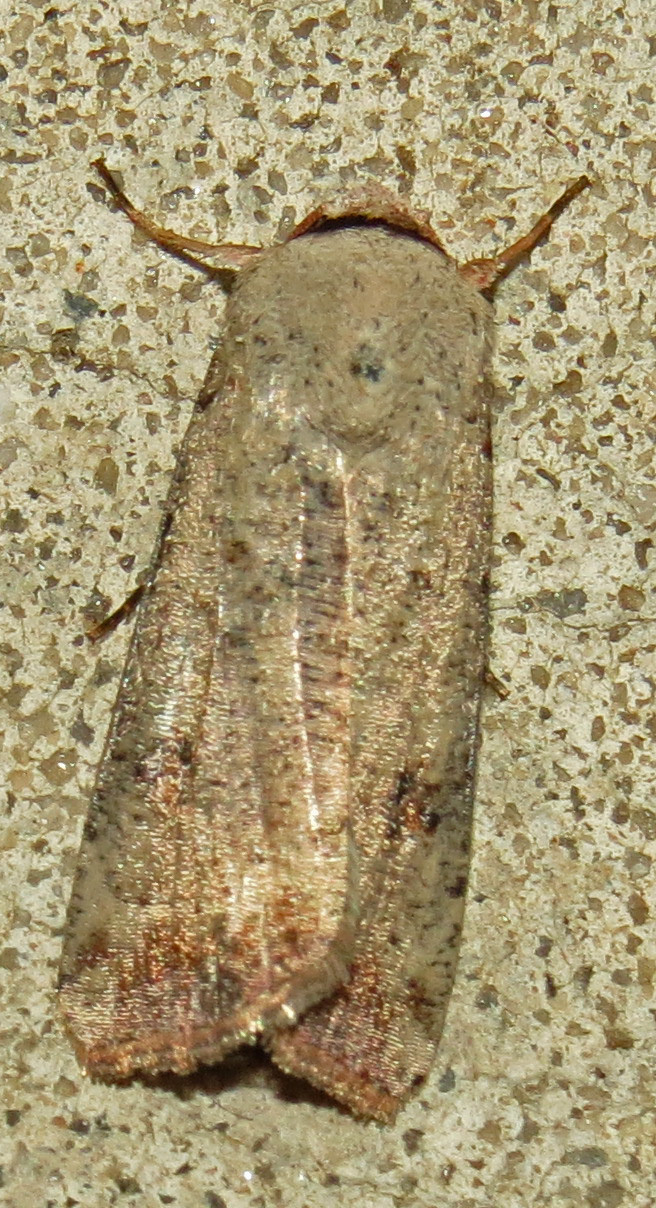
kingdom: Animalia
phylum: Arthropoda
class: Insecta
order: Lepidoptera
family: Noctuidae
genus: Anicla
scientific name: Anicla infecta
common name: Green cutworm
